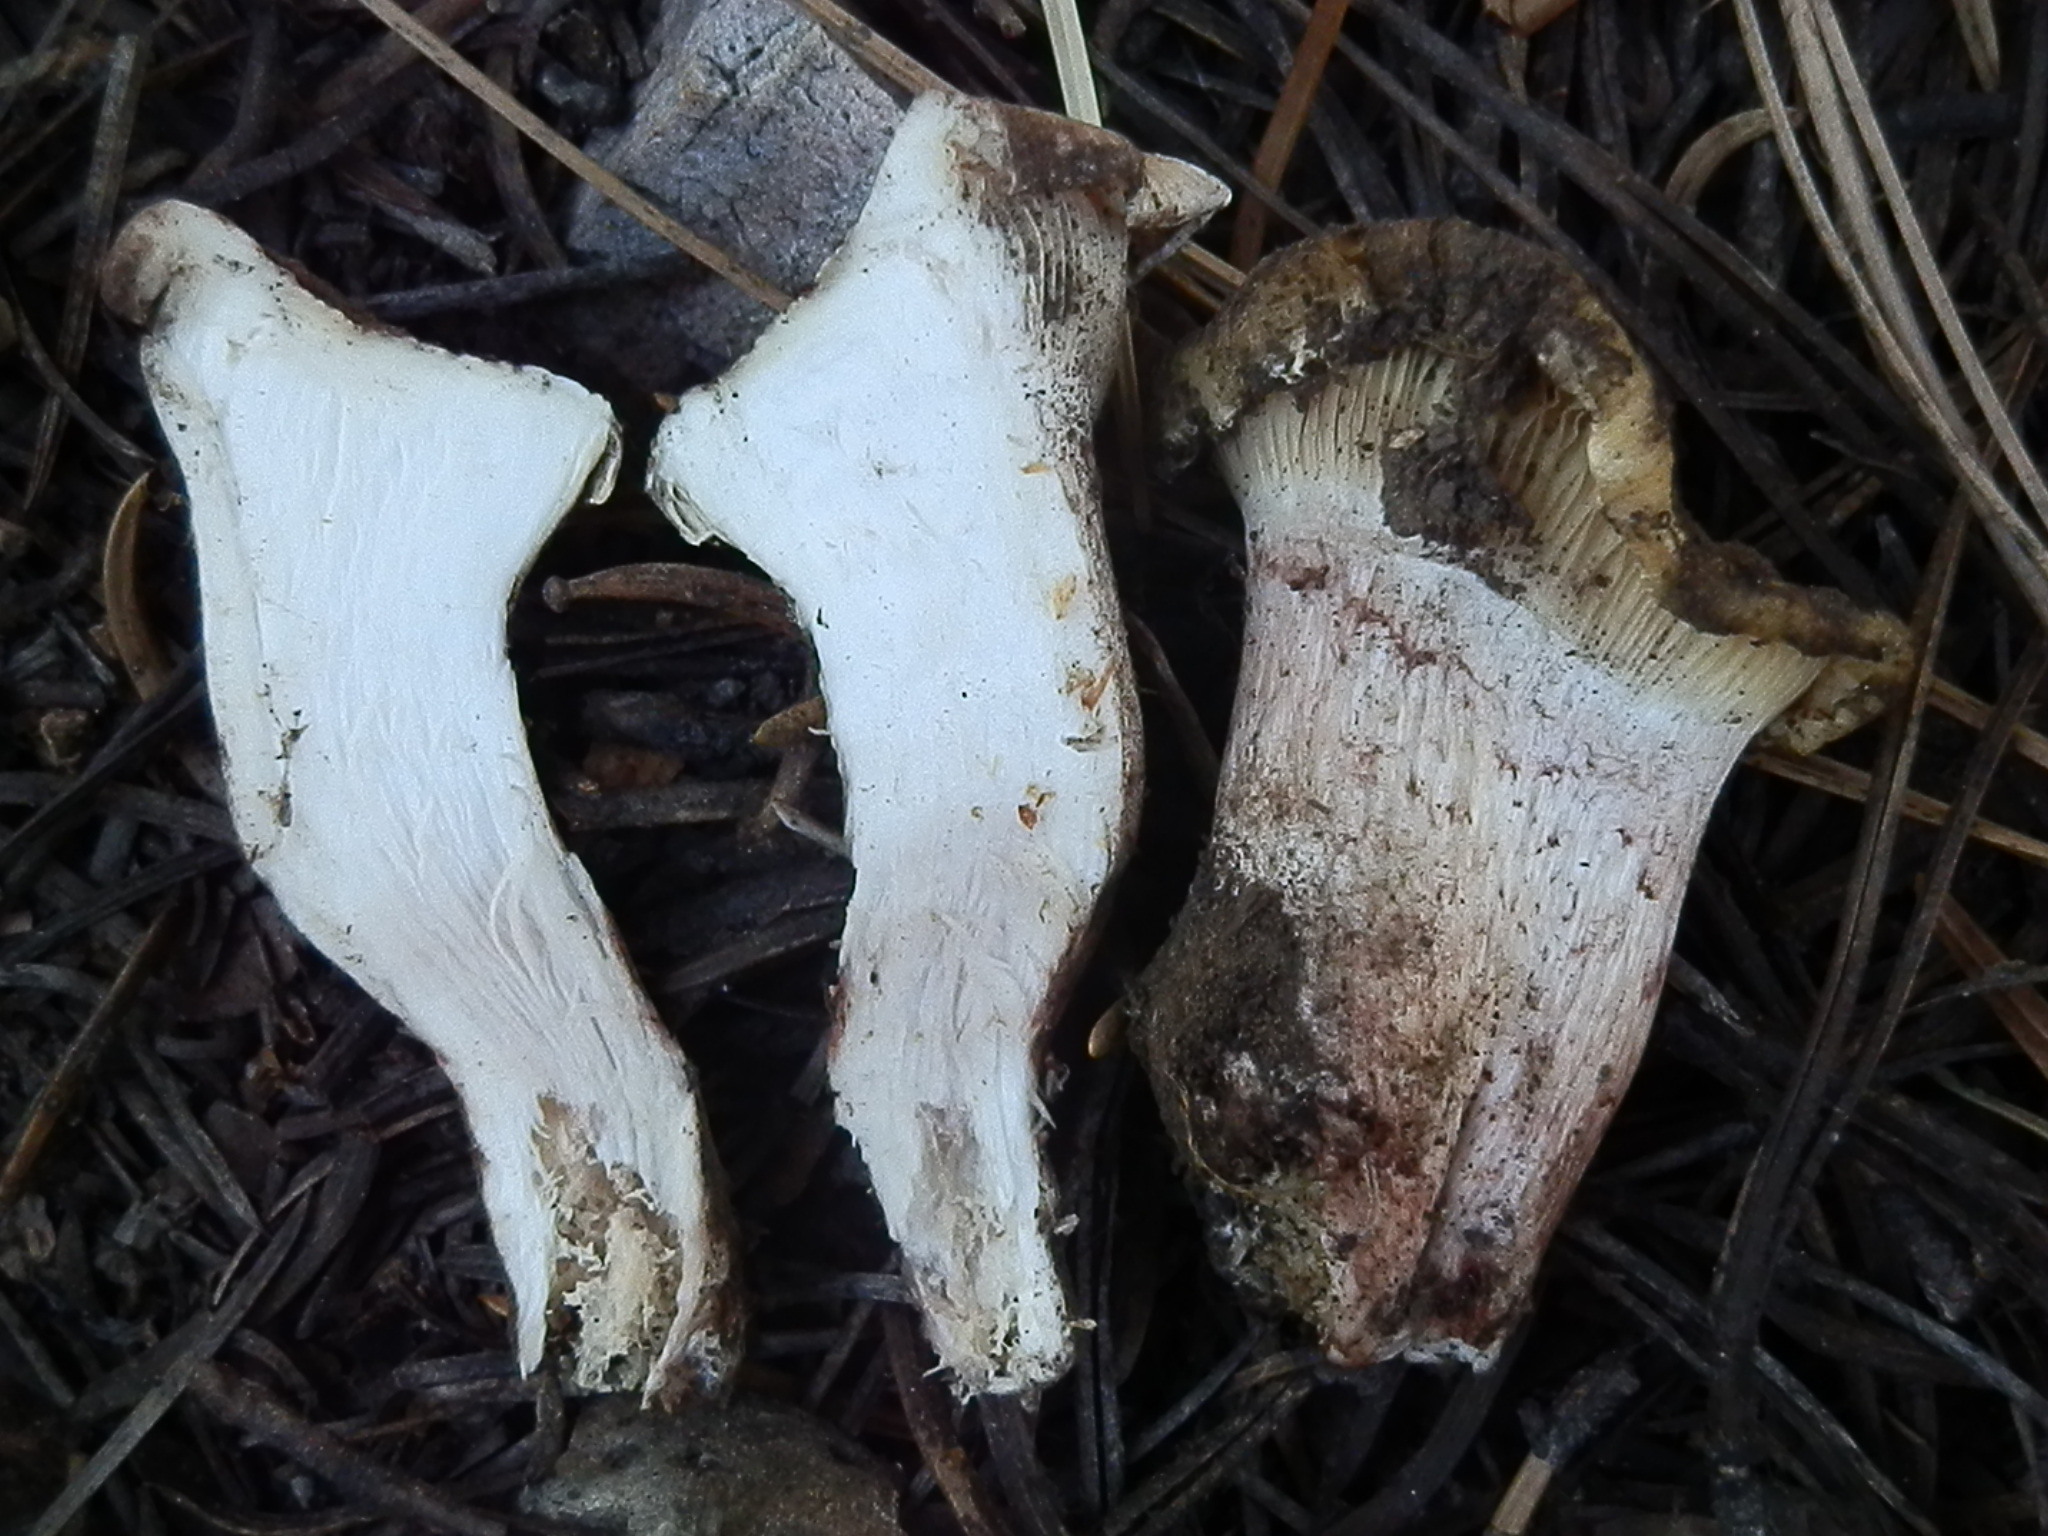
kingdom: Fungi
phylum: Basidiomycota
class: Agaricomycetes
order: Agaricales
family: Hygrophoraceae
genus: Hygrophorus
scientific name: Hygrophorus purpurascens
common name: Veiled purple waxcap
